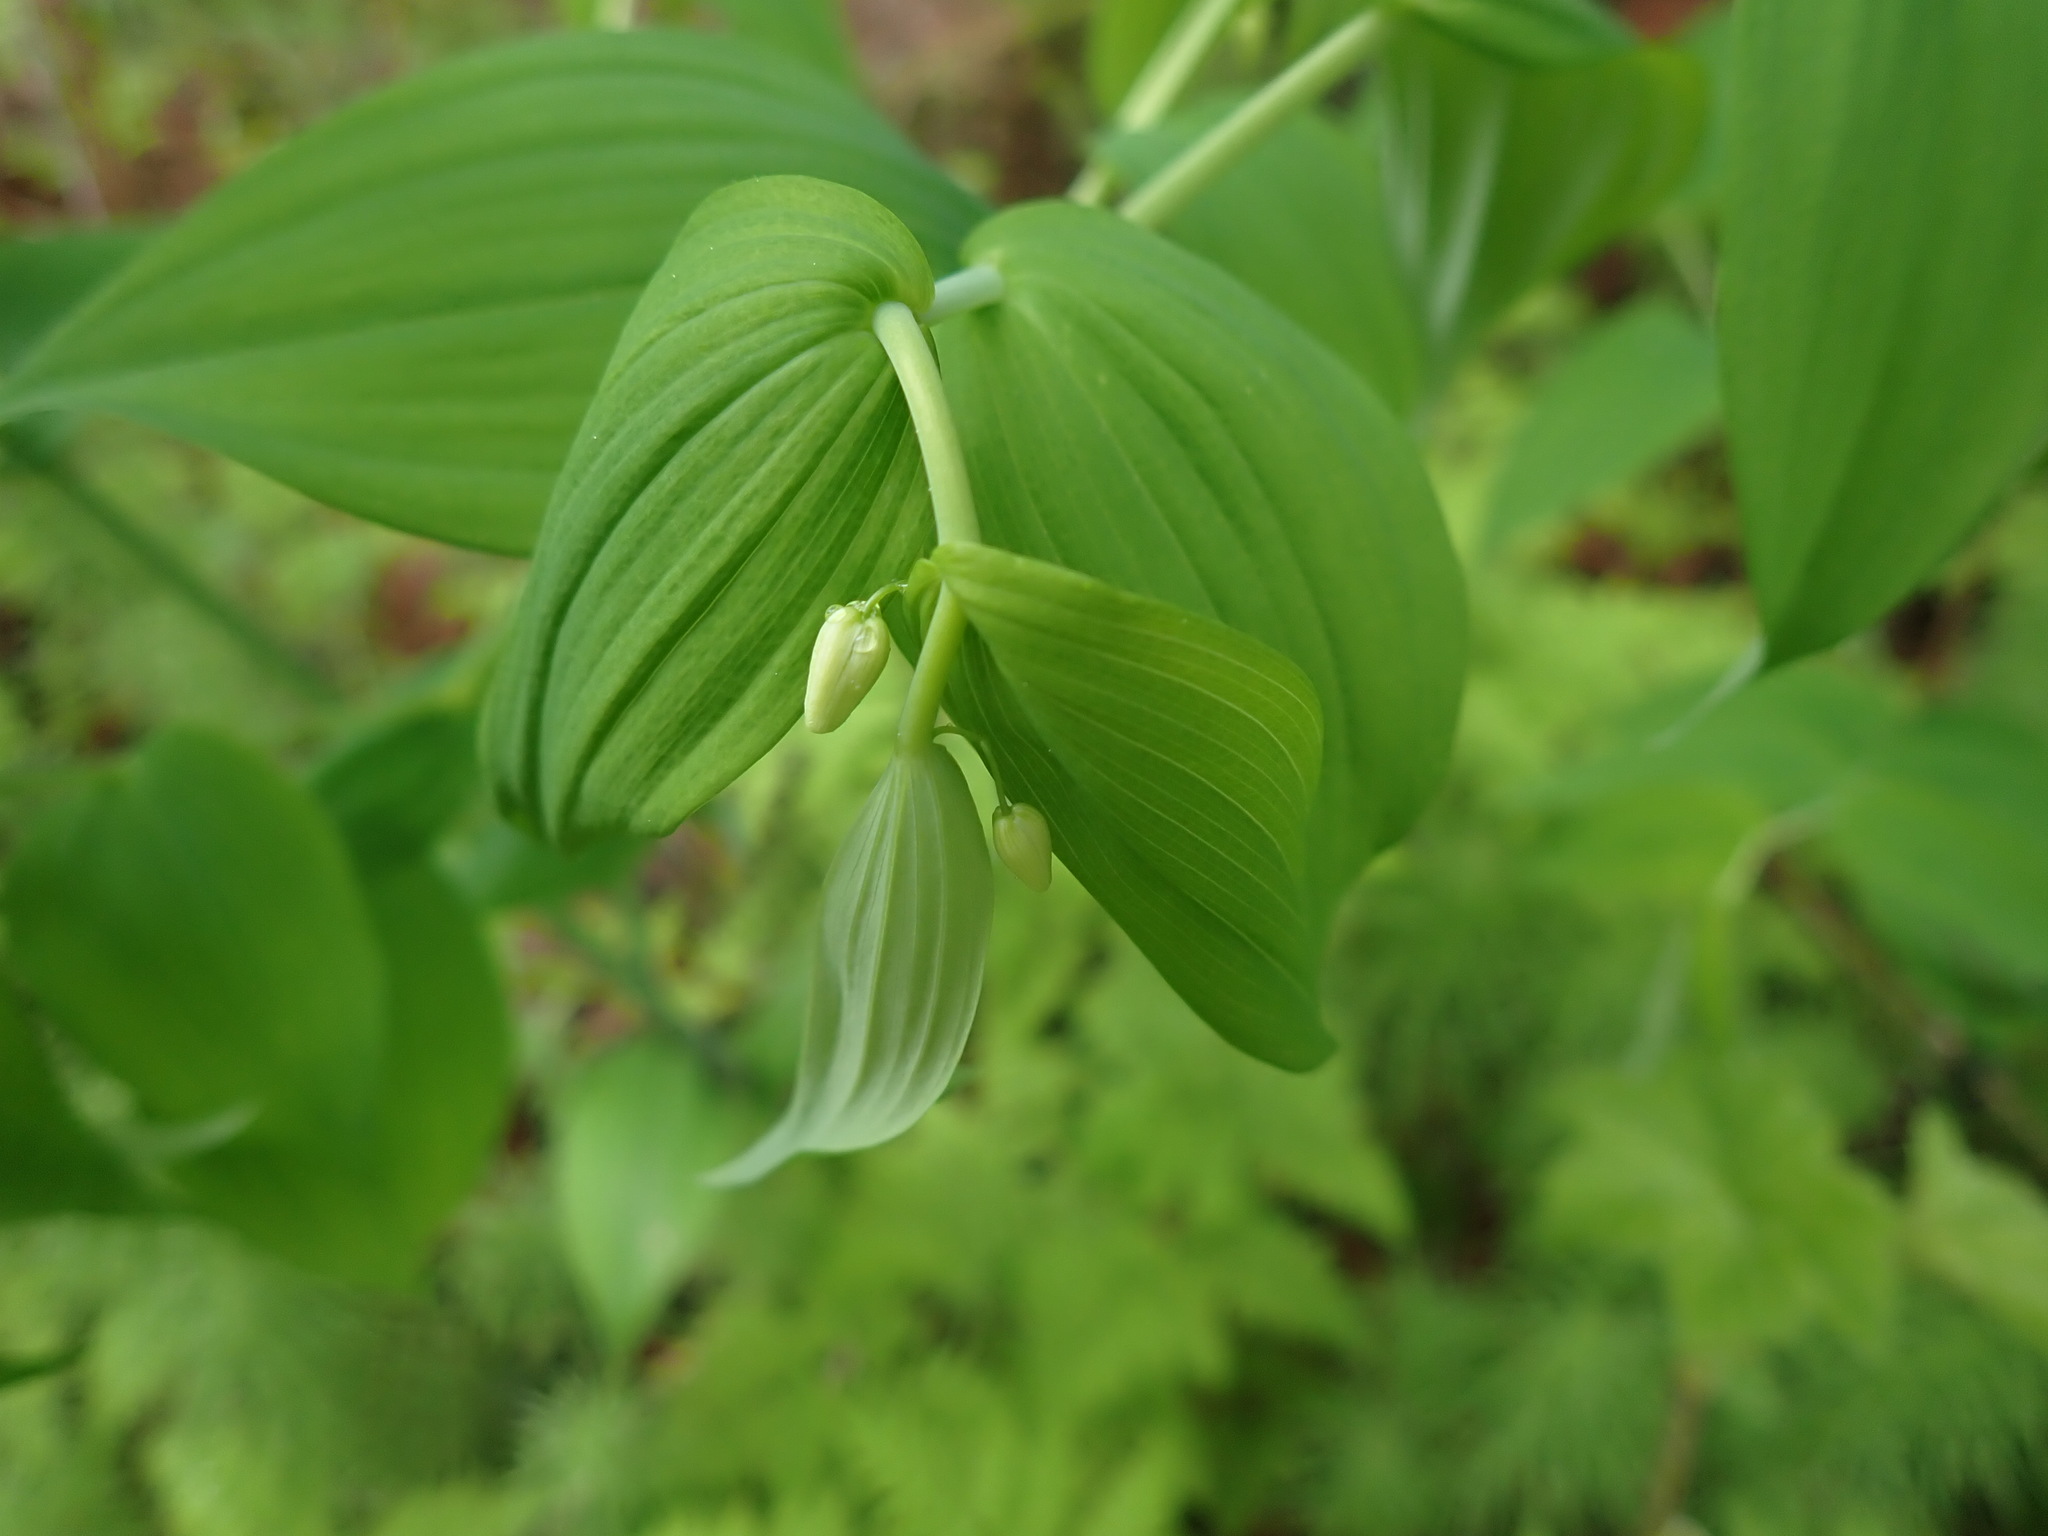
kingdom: Plantae
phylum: Tracheophyta
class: Liliopsida
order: Liliales
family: Liliaceae
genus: Streptopus
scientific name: Streptopus amplexifolius
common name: Clasp twisted stalk
